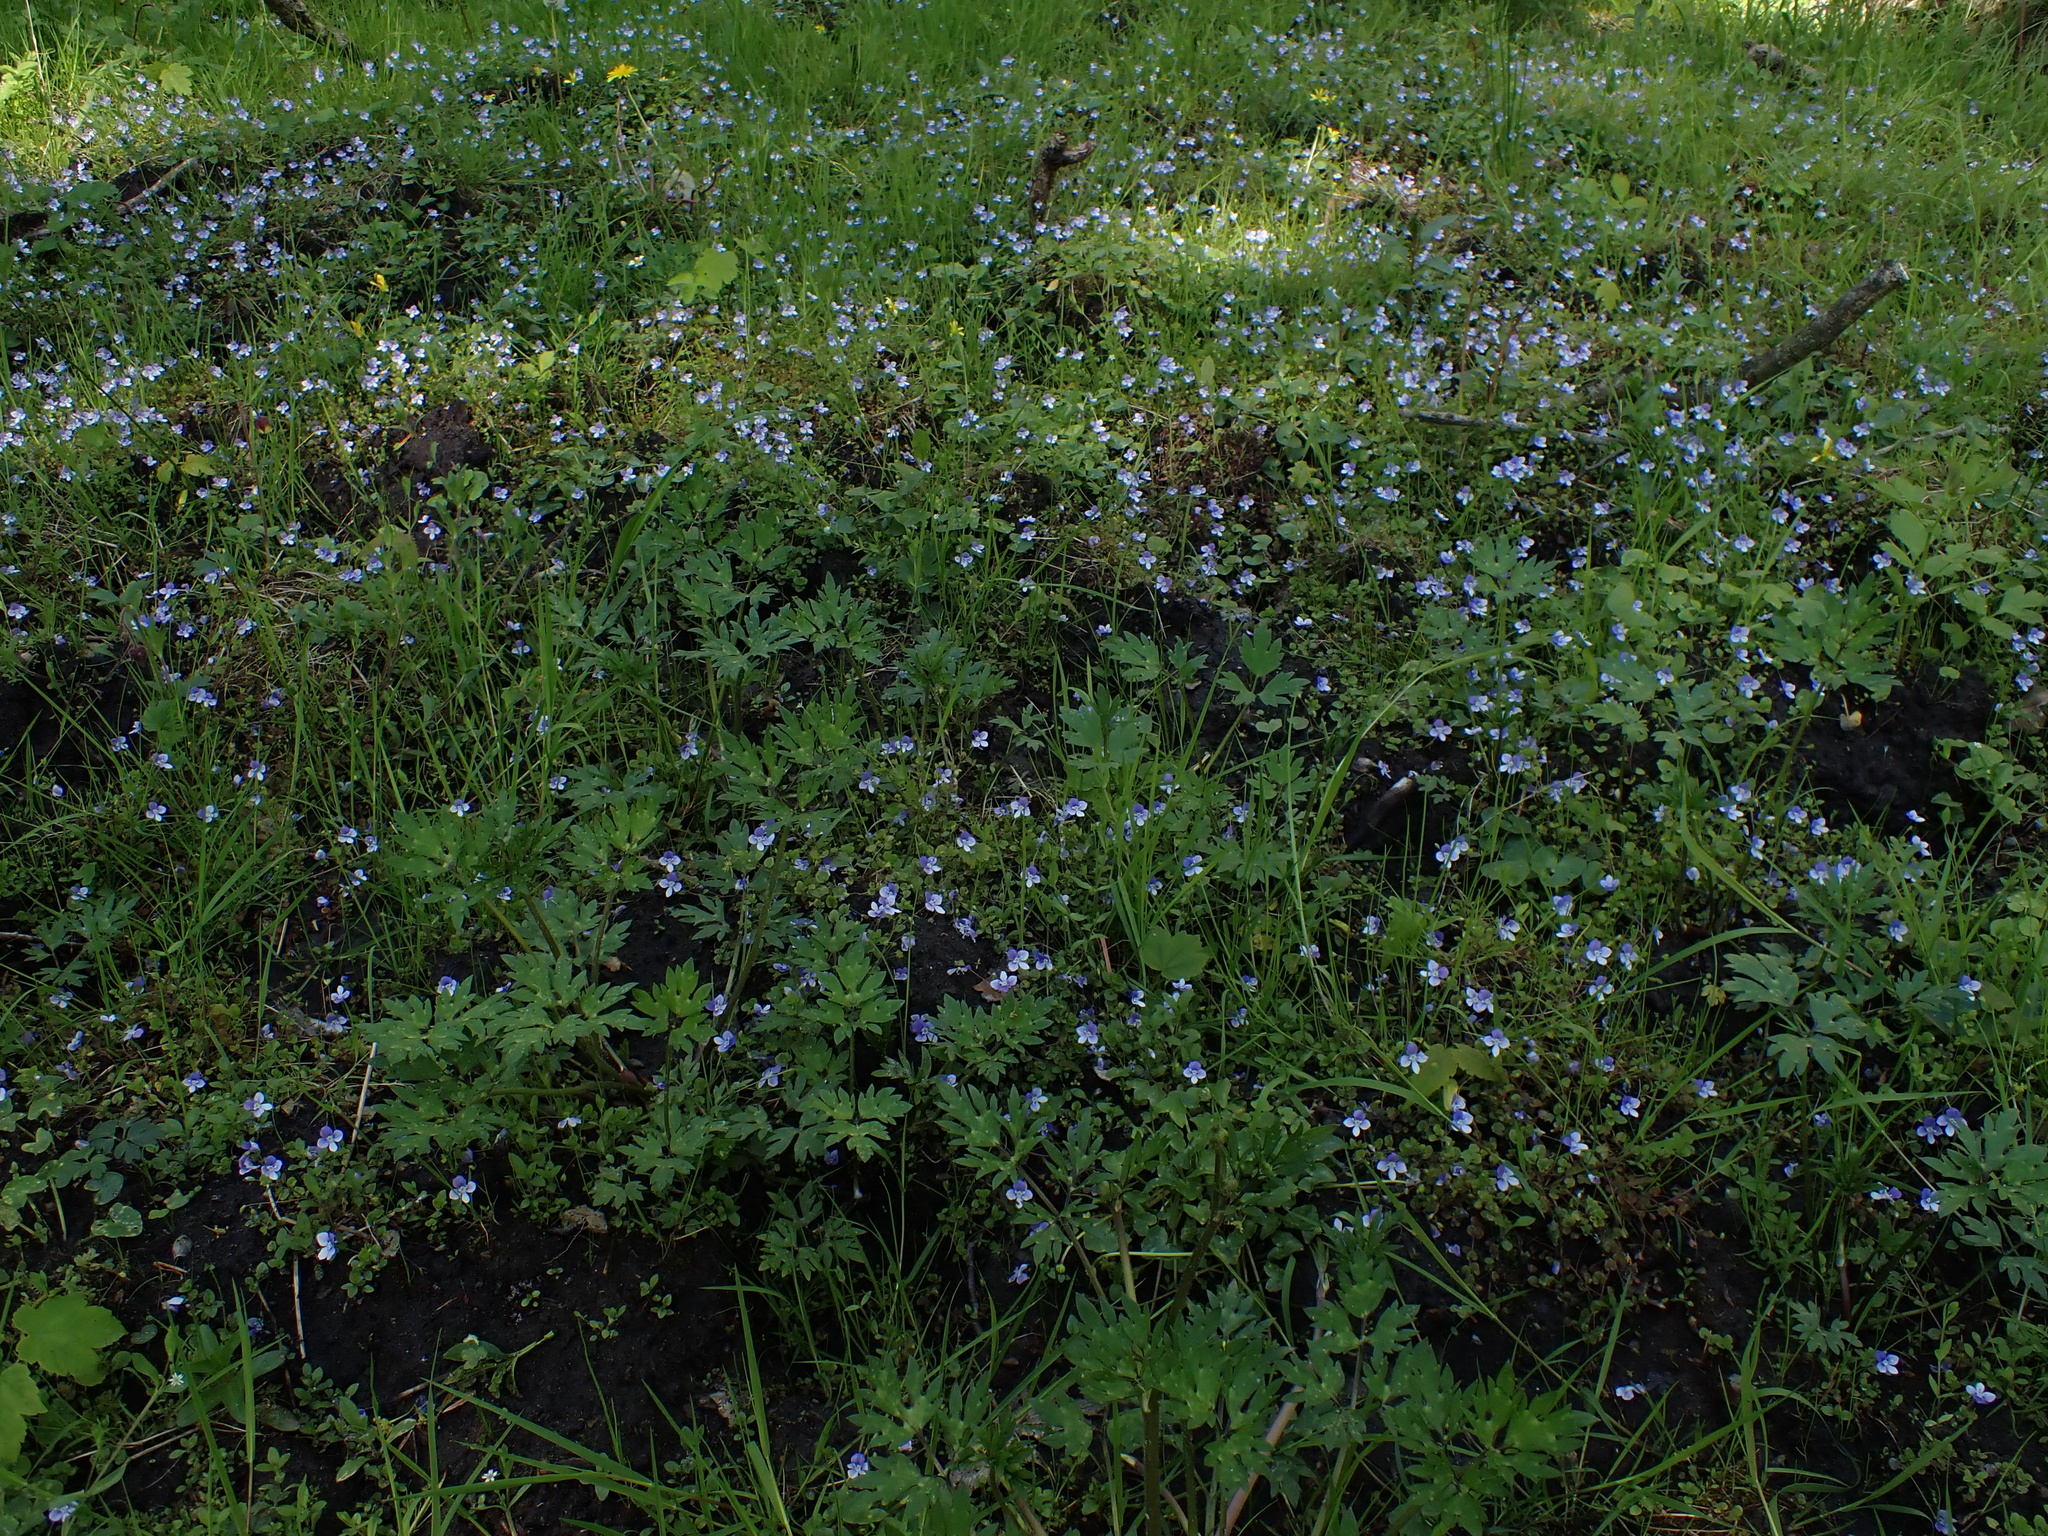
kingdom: Plantae
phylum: Tracheophyta
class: Magnoliopsida
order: Lamiales
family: Plantaginaceae
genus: Veronica
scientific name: Veronica filiformis
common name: Slender speedwell
